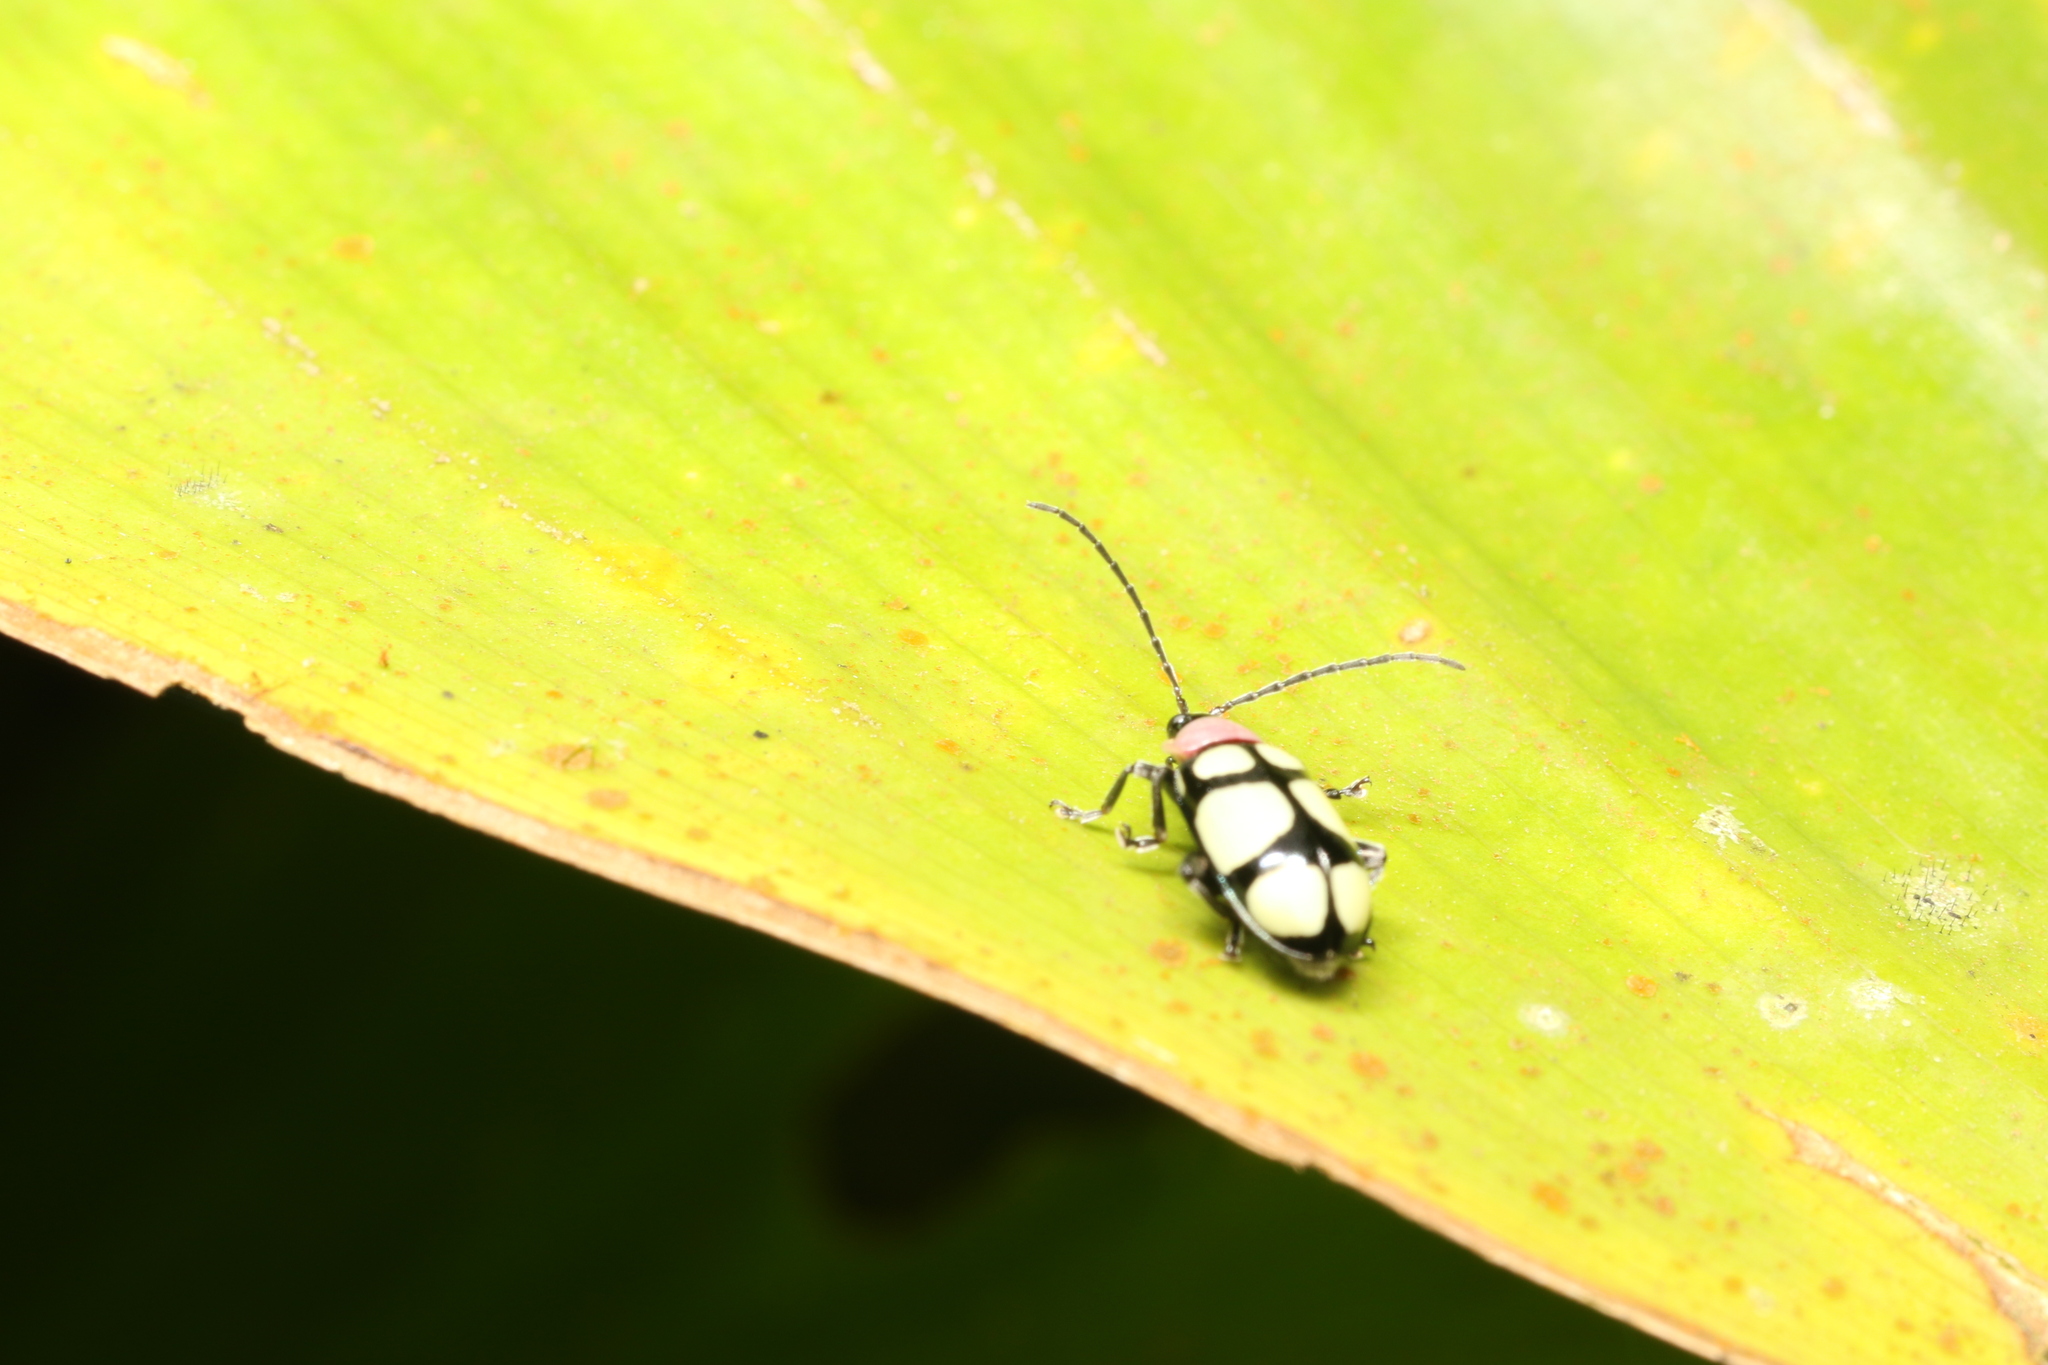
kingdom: Animalia
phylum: Arthropoda
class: Insecta
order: Coleoptera
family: Chrysomelidae
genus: Omophoita
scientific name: Omophoita
